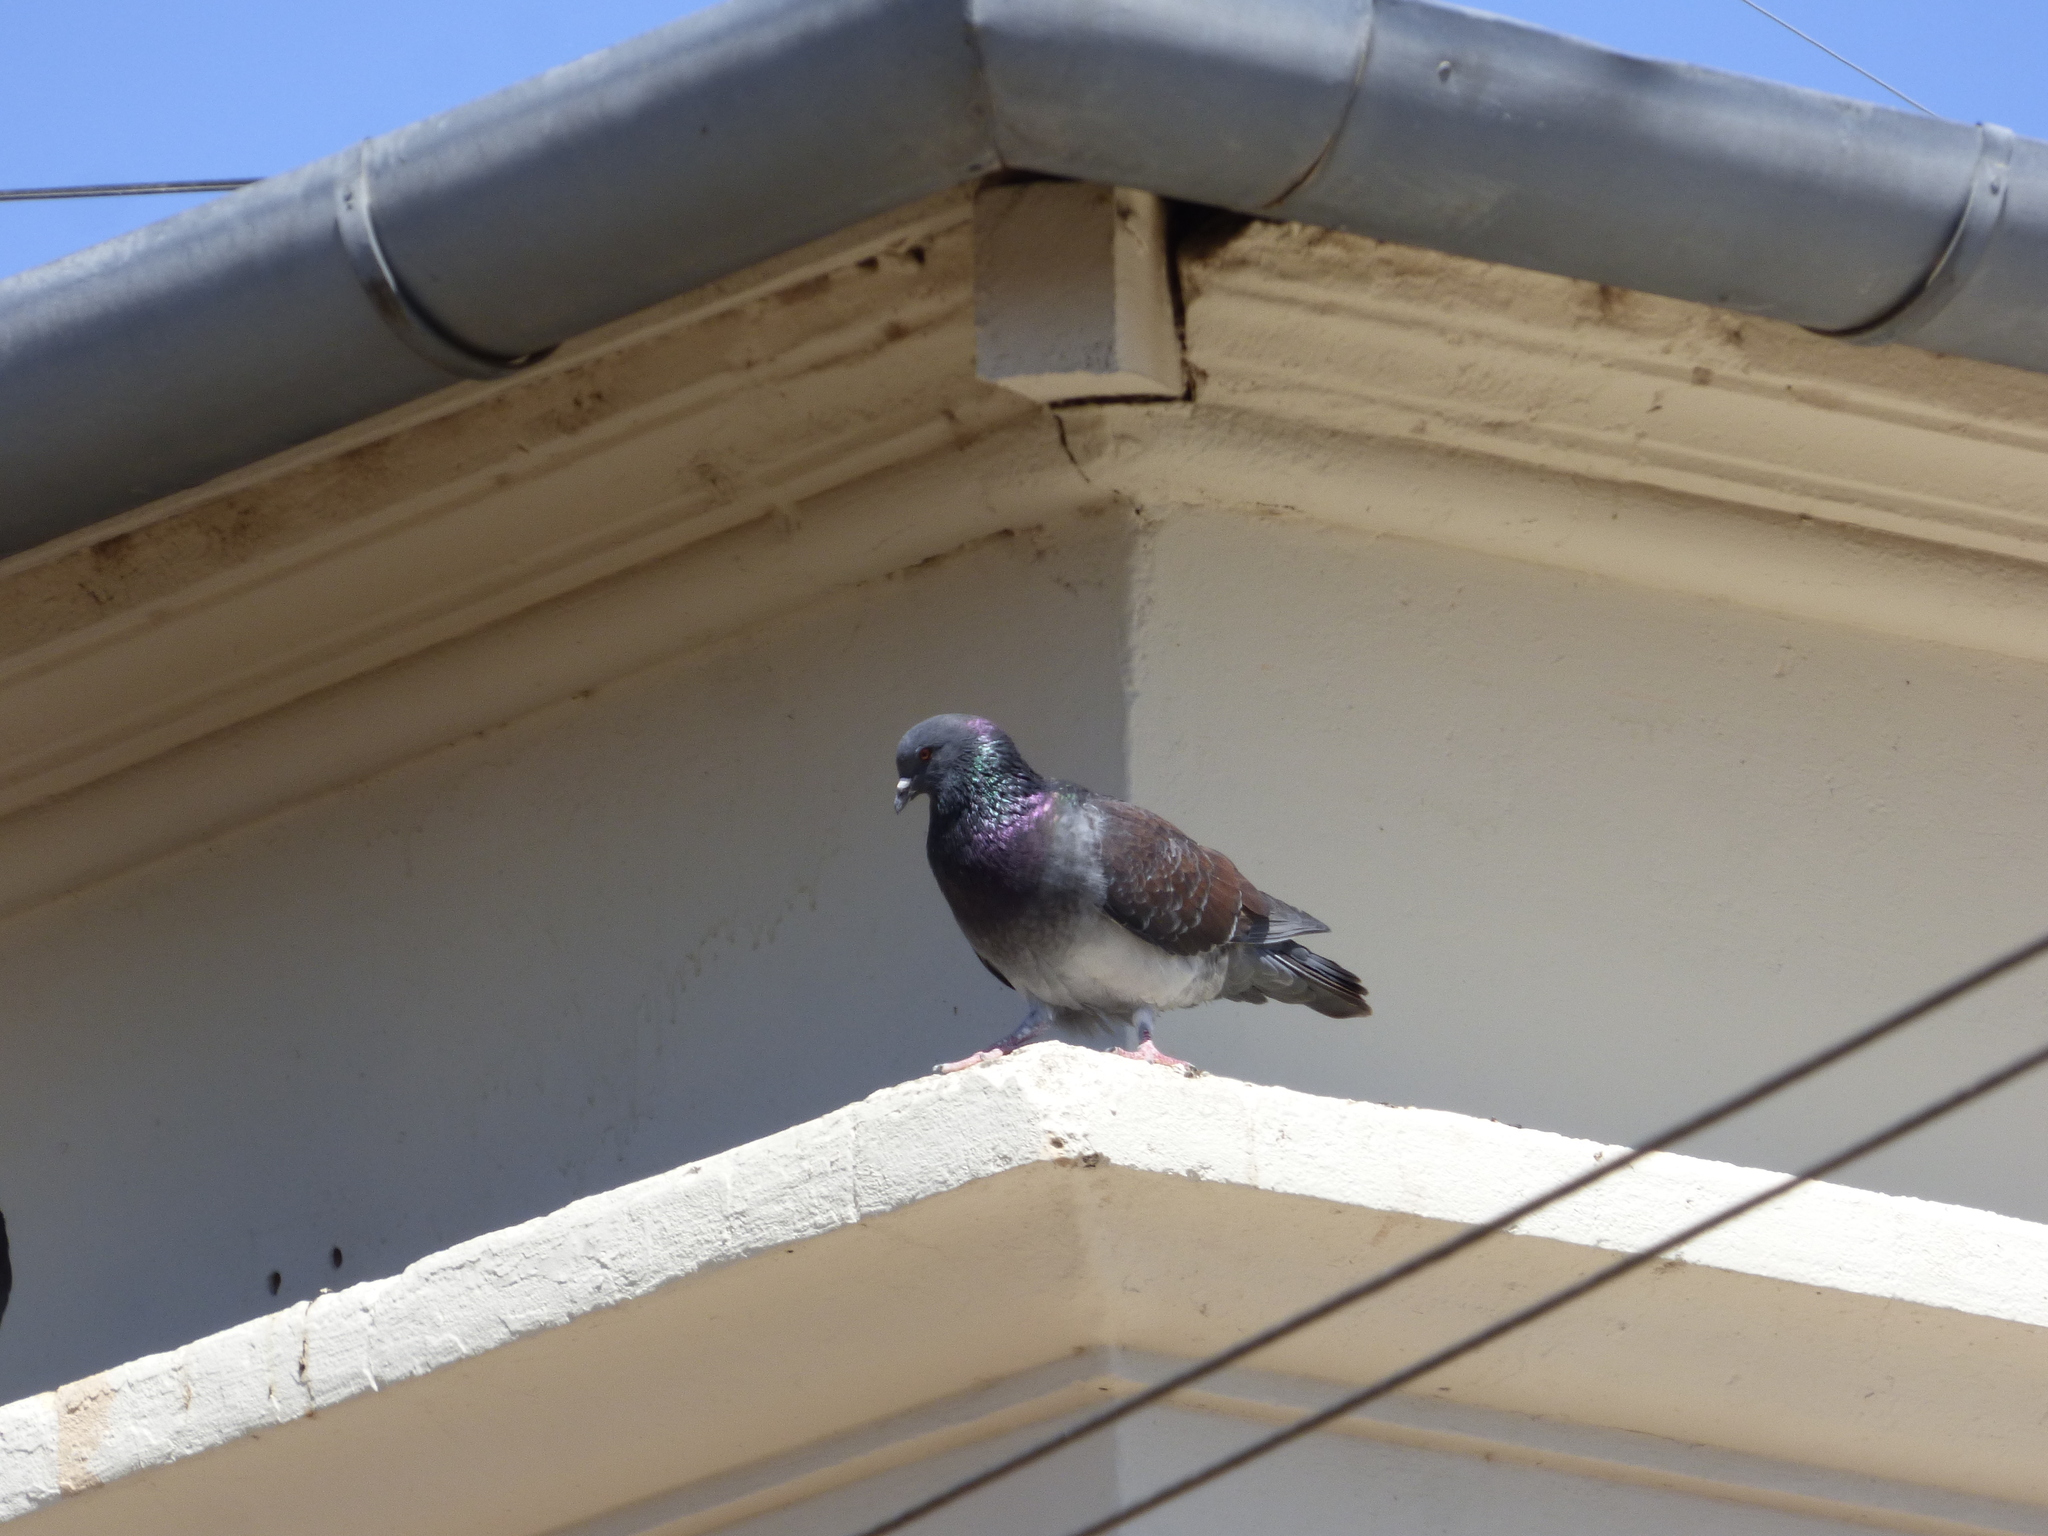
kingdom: Animalia
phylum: Chordata
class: Aves
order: Columbiformes
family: Columbidae
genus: Columba
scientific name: Columba livia
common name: Rock pigeon
